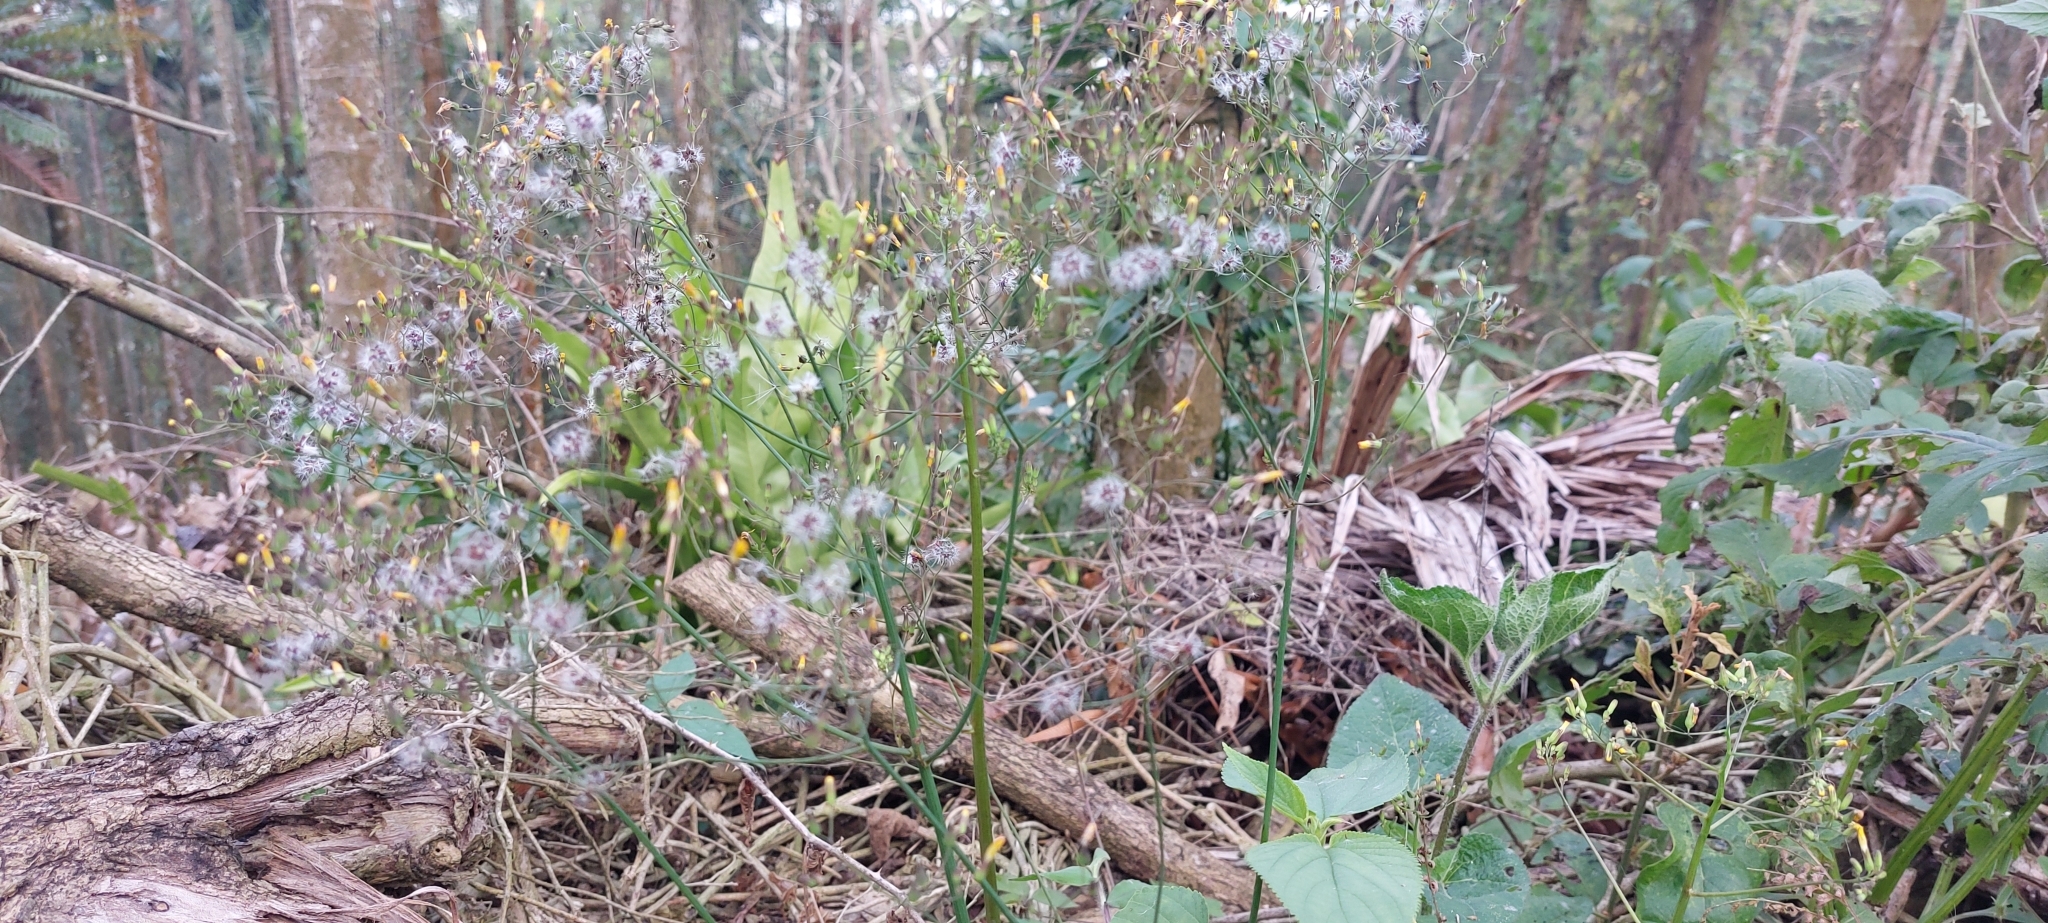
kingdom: Plantae
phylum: Tracheophyta
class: Magnoliopsida
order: Asterales
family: Asteraceae
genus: Youngia
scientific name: Youngia japonica
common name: Oriental false hawksbeard
